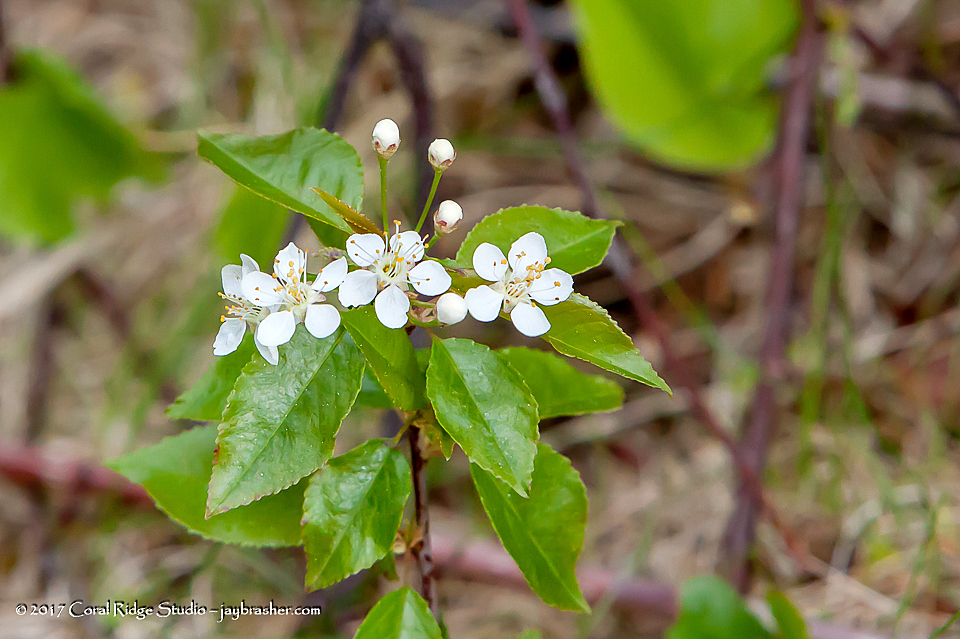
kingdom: Plantae
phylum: Tracheophyta
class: Magnoliopsida
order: Rosales
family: Rosaceae
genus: Prunus
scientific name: Prunus pensylvanica
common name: Pin cherry
